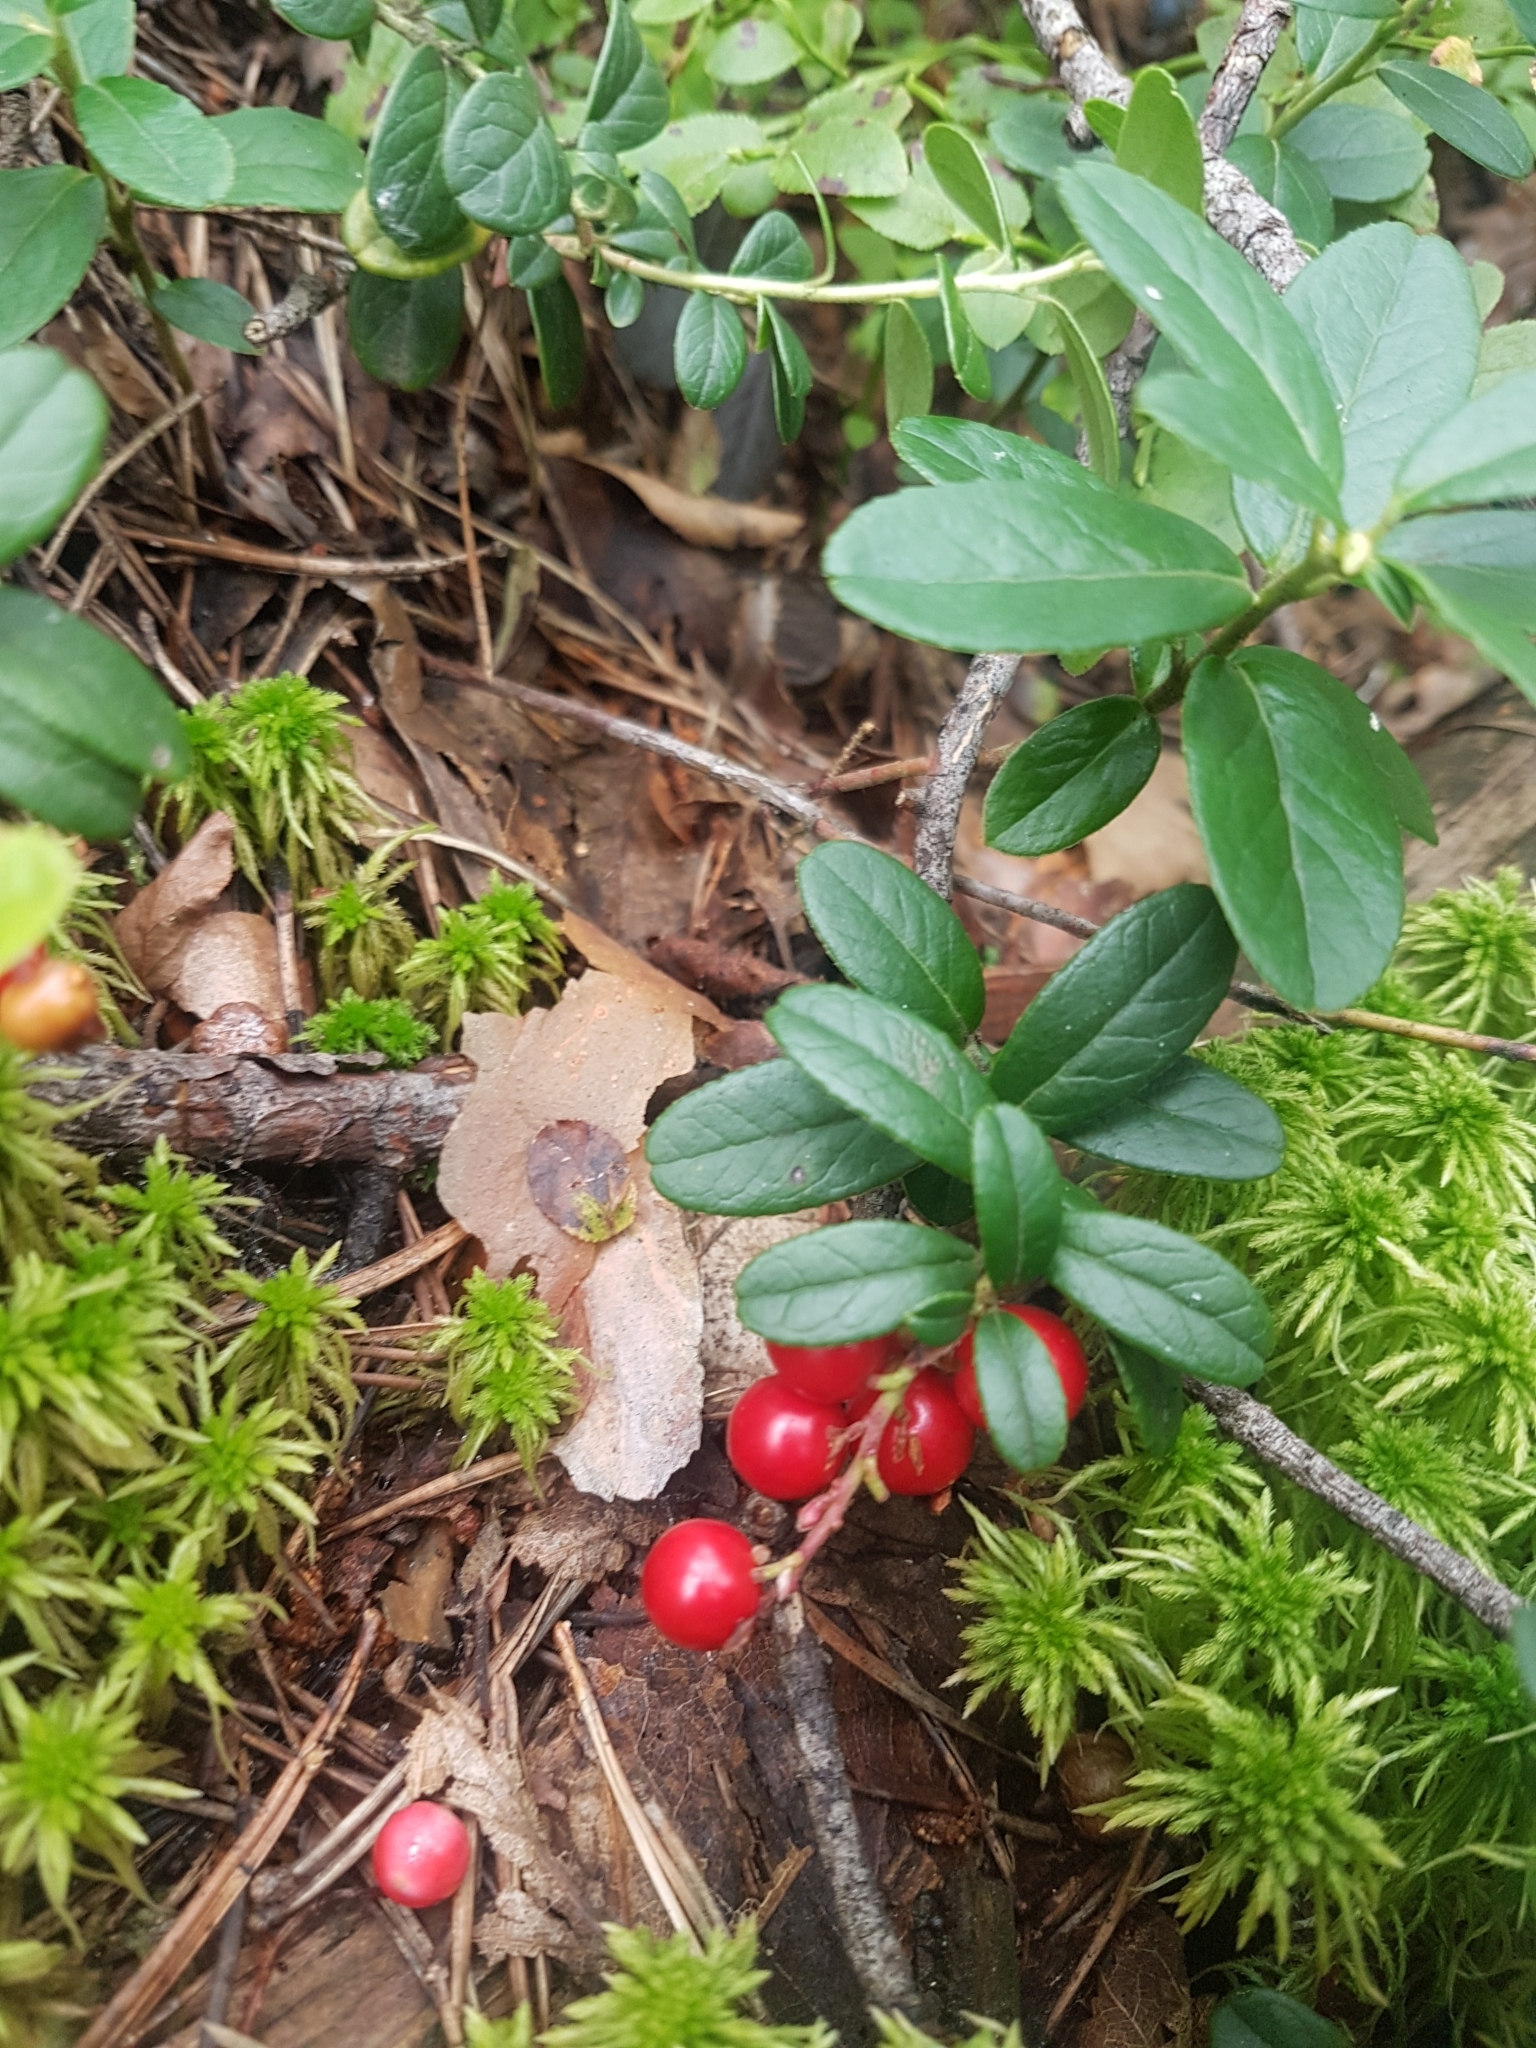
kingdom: Plantae
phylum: Tracheophyta
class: Magnoliopsida
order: Ericales
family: Ericaceae
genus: Vaccinium
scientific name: Vaccinium vitis-idaea
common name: Cowberry
